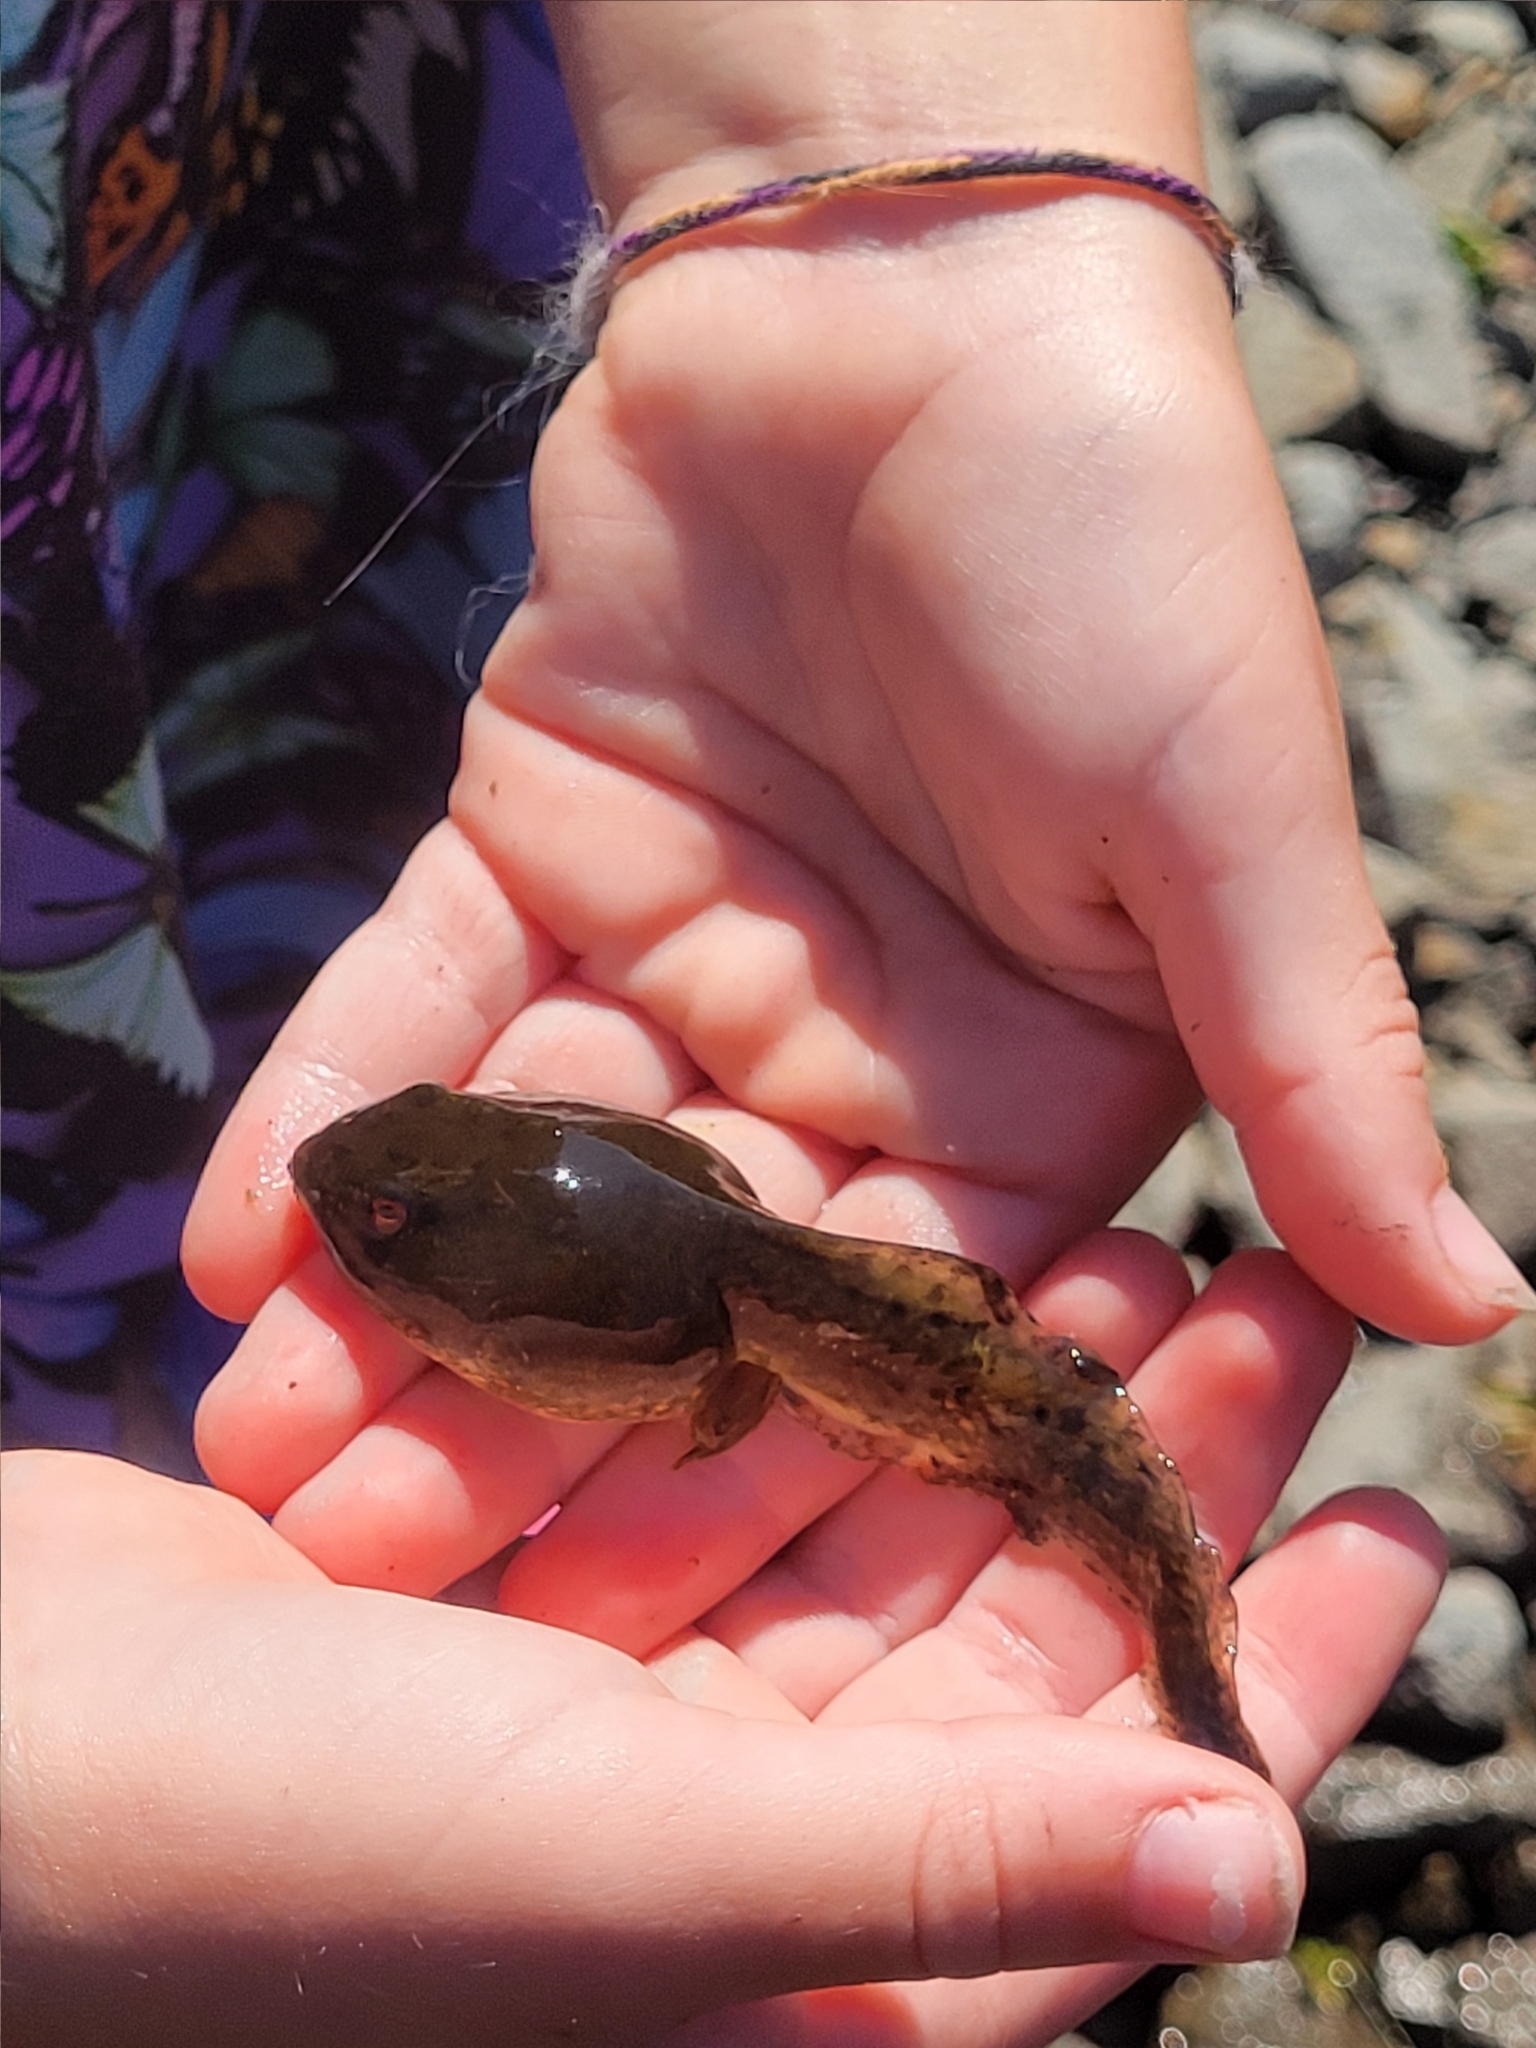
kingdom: Animalia
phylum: Chordata
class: Amphibia
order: Anura
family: Ranidae
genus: Lithobates
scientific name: Lithobates catesbeianus
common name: American bullfrog
